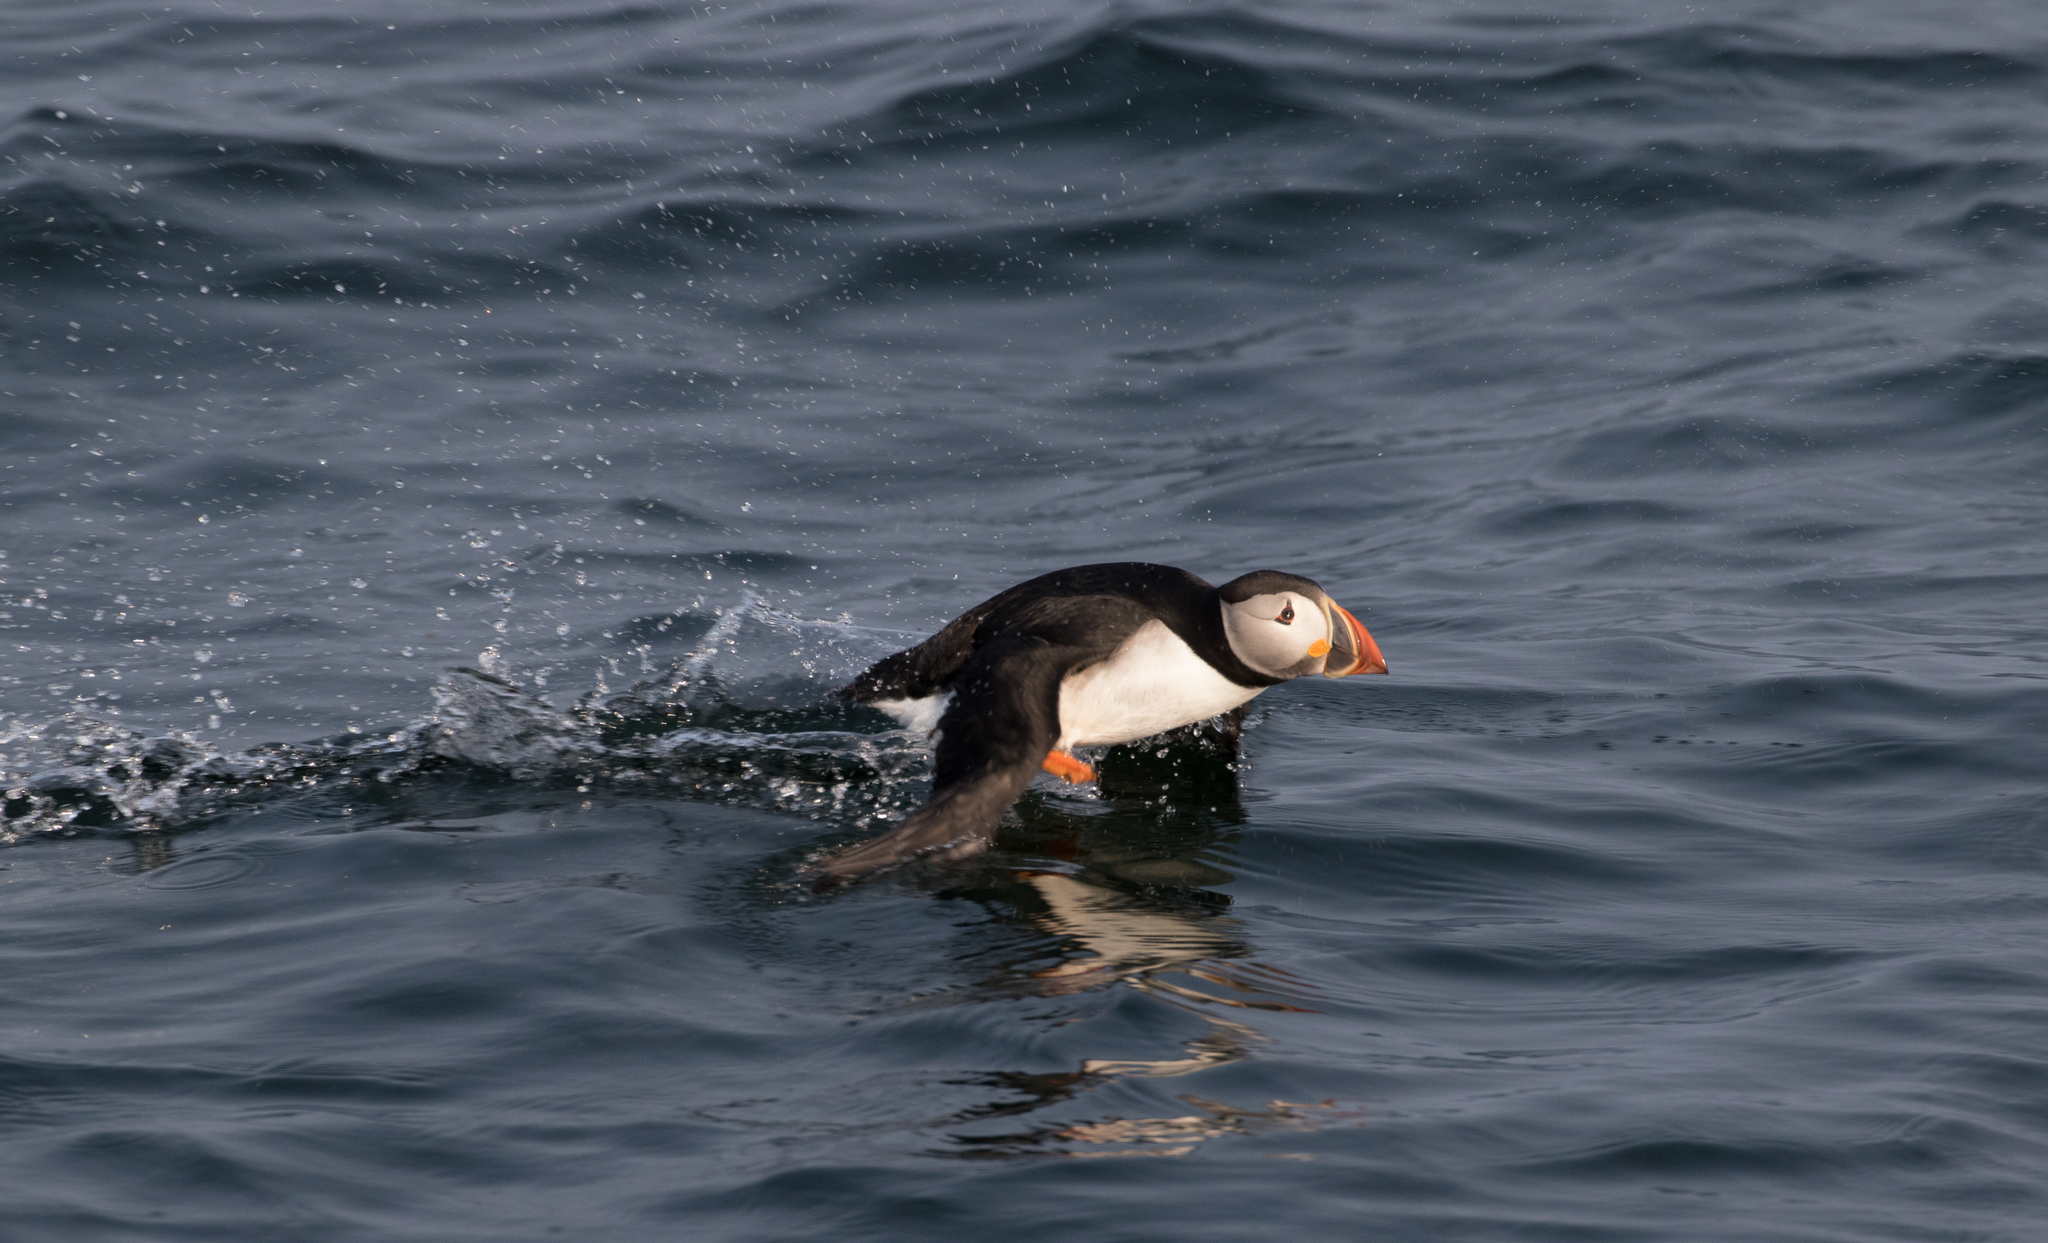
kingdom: Animalia
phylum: Chordata
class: Aves
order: Charadriiformes
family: Alcidae
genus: Fratercula
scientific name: Fratercula arctica
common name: Atlantic puffin
